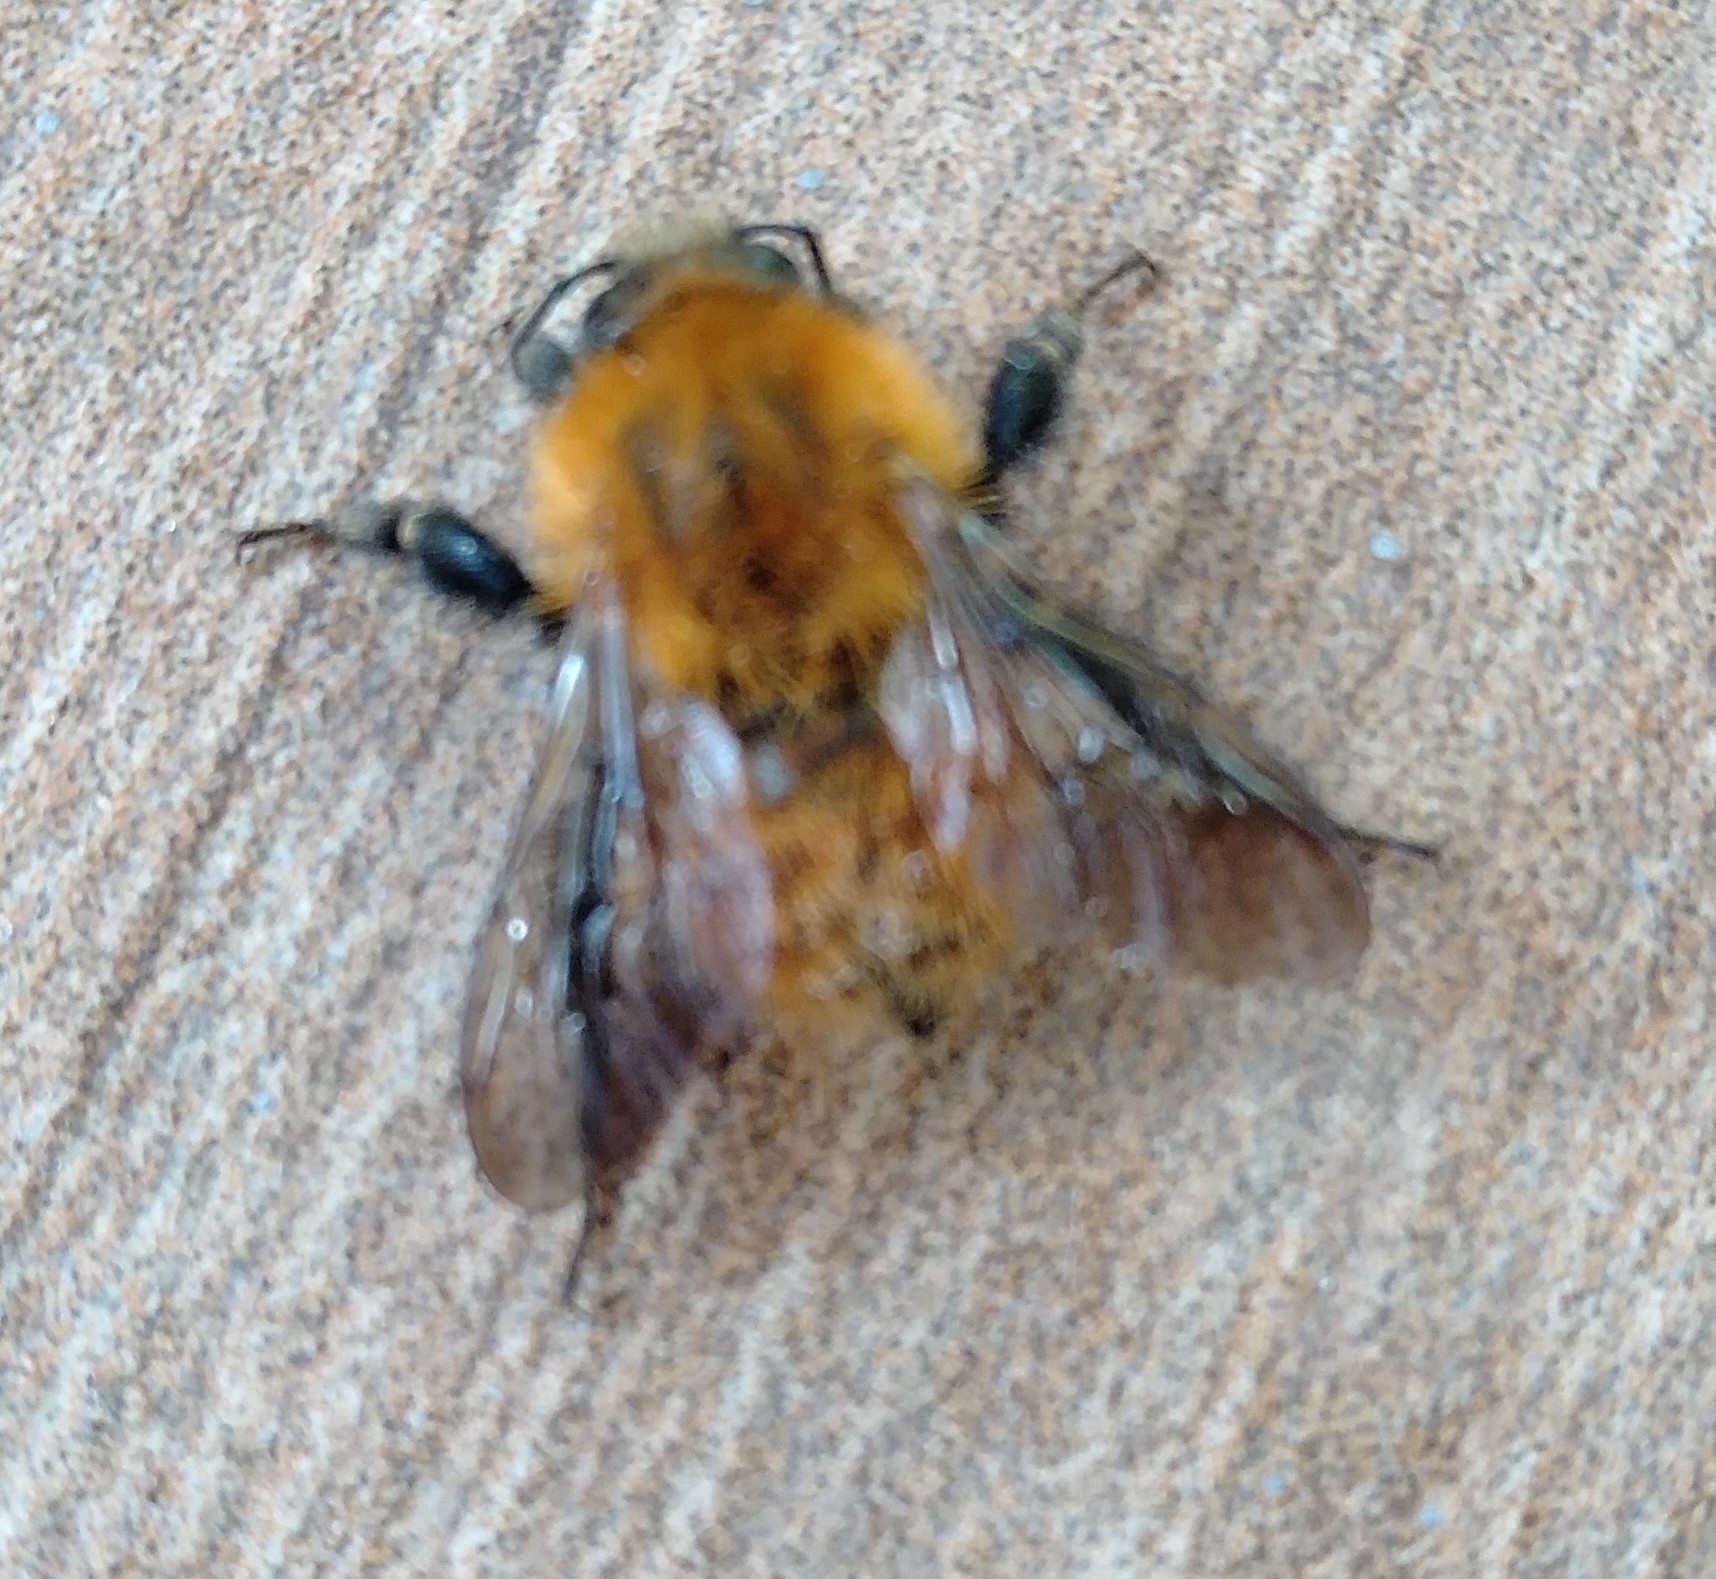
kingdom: Animalia
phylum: Arthropoda
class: Insecta
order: Hymenoptera
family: Apidae
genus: Bombus
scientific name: Bombus pascuorum
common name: Common carder bee
